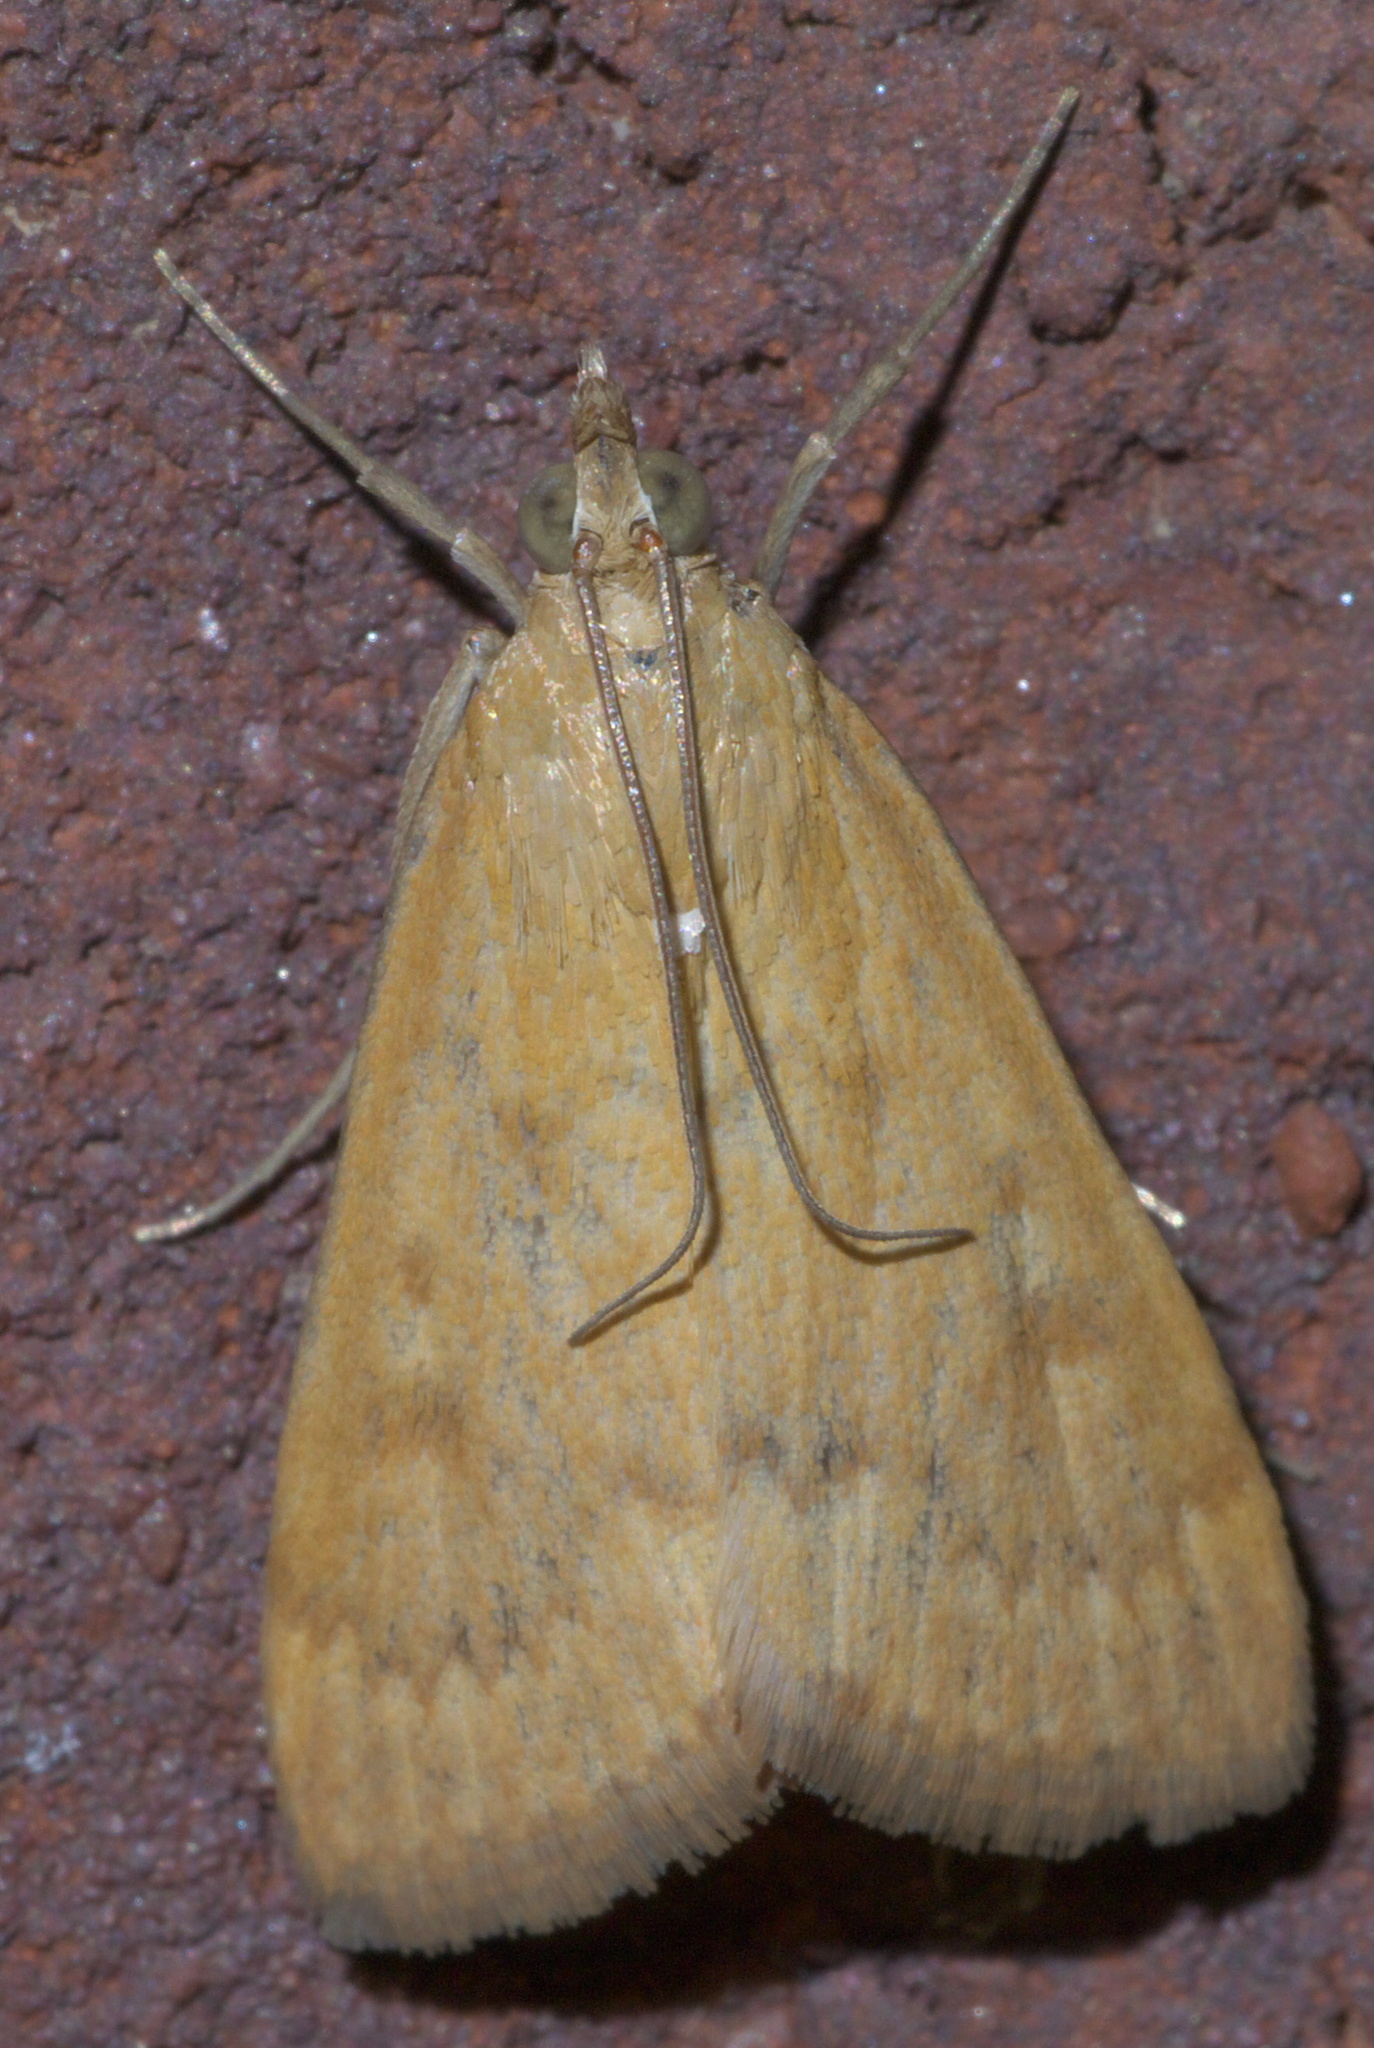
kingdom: Animalia
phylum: Arthropoda
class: Insecta
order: Lepidoptera
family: Crambidae
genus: Achyra
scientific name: Achyra rantalis
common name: Garden webworm
